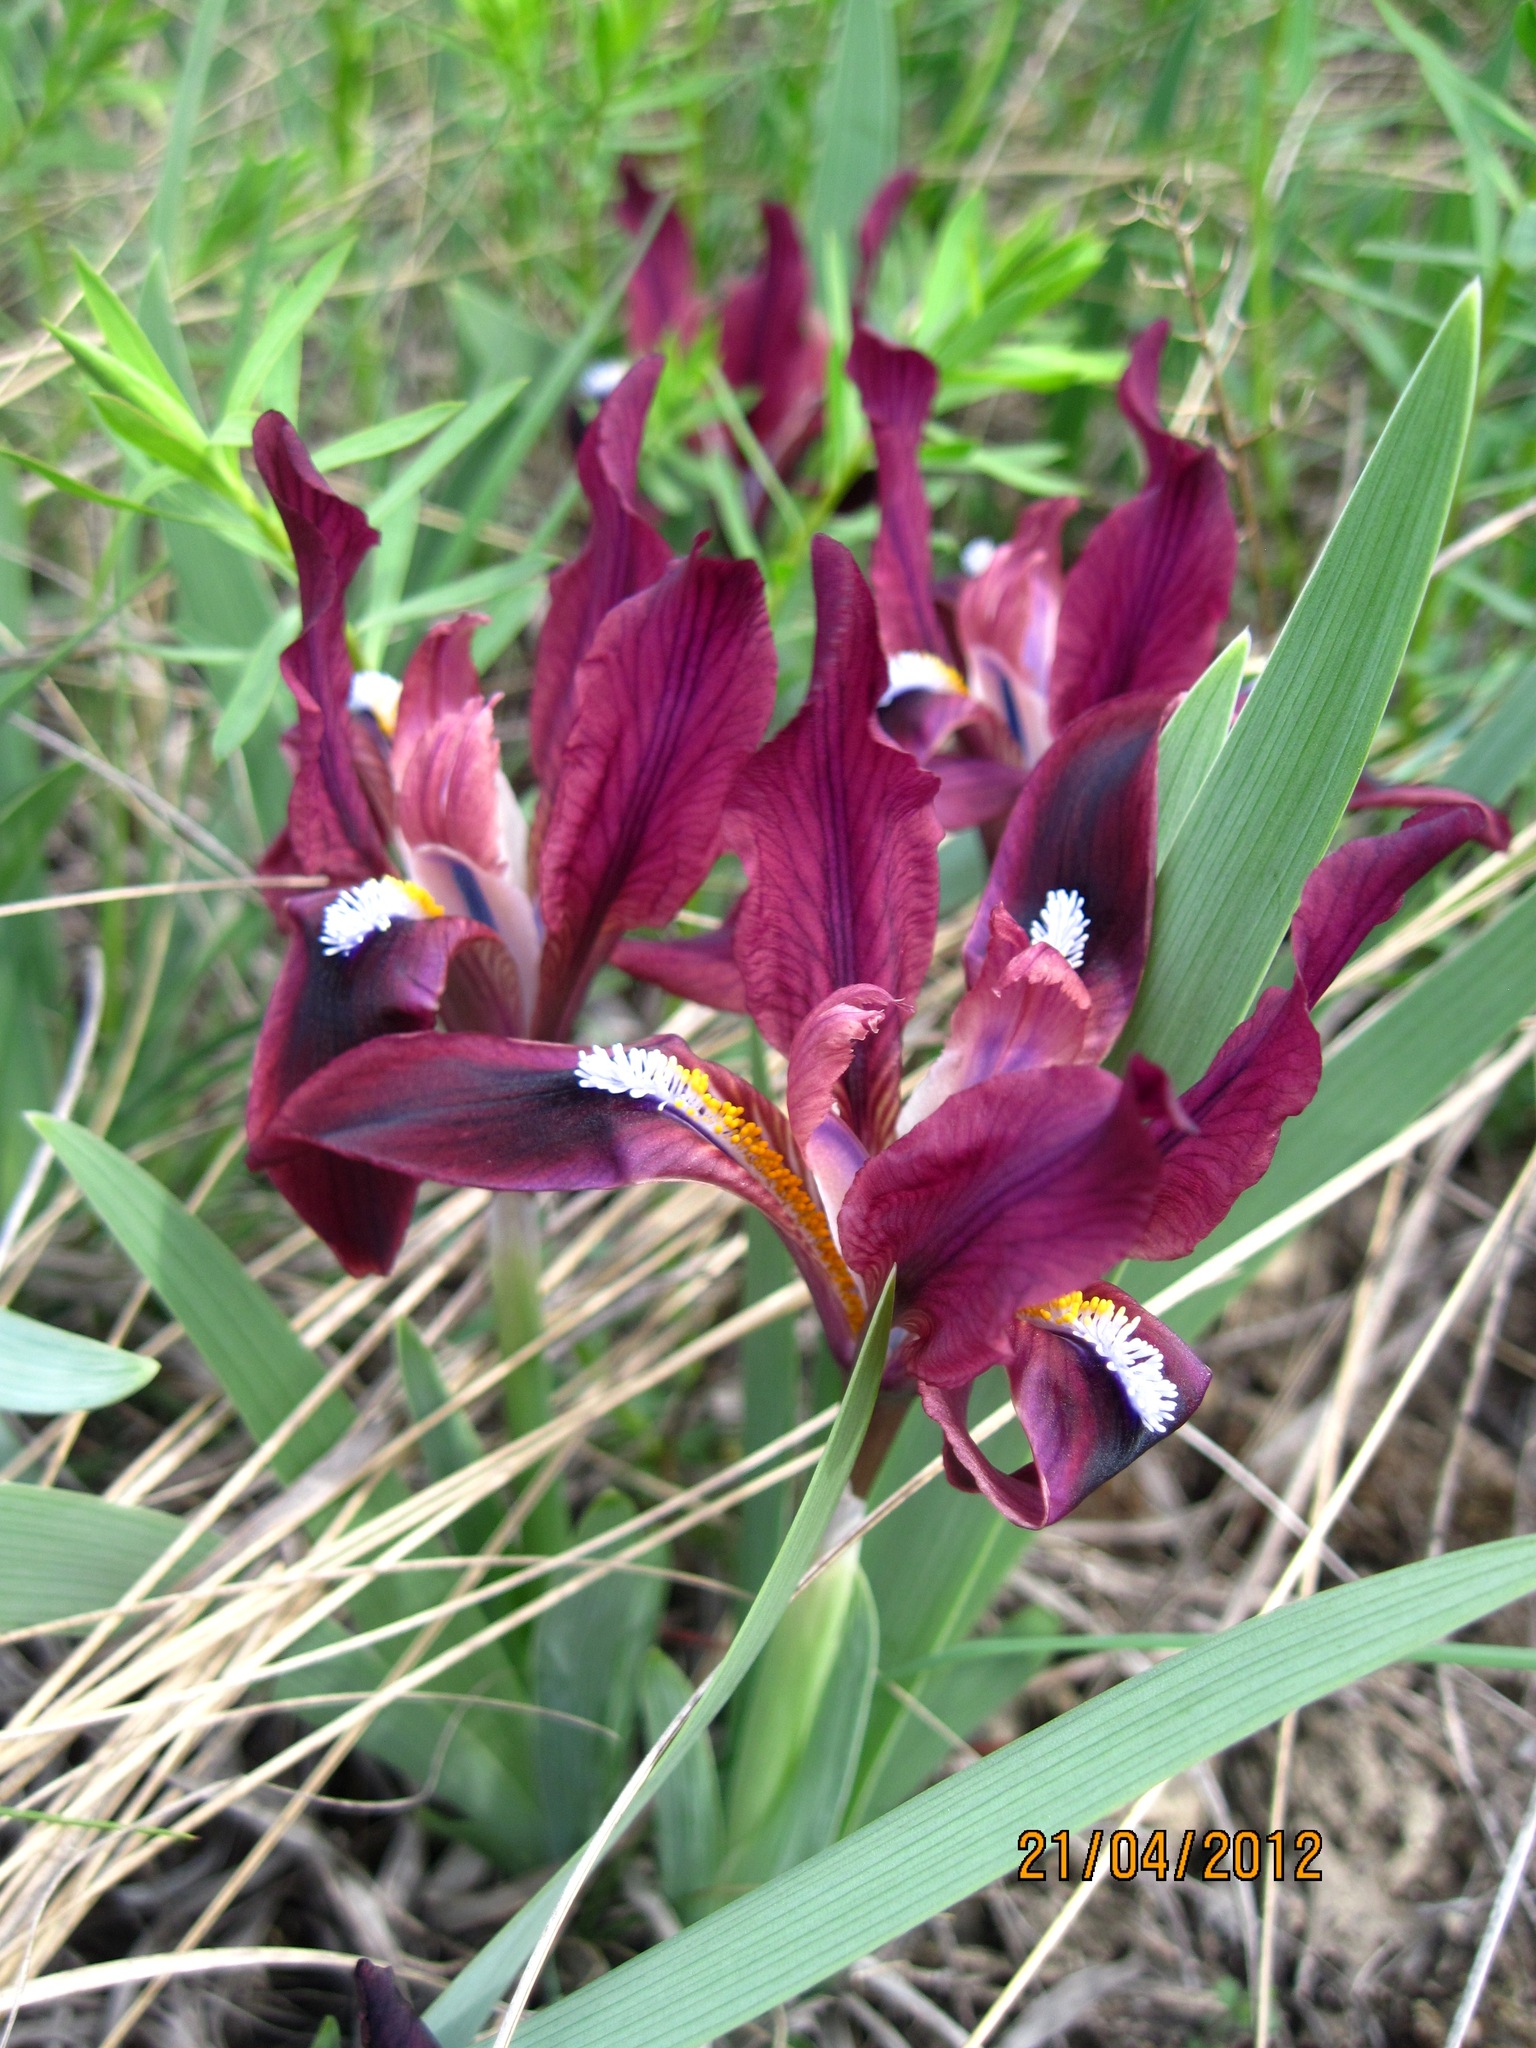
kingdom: Plantae
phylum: Tracheophyta
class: Liliopsida
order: Asparagales
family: Iridaceae
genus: Iris
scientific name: Iris pumila
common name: Dwarf iris
